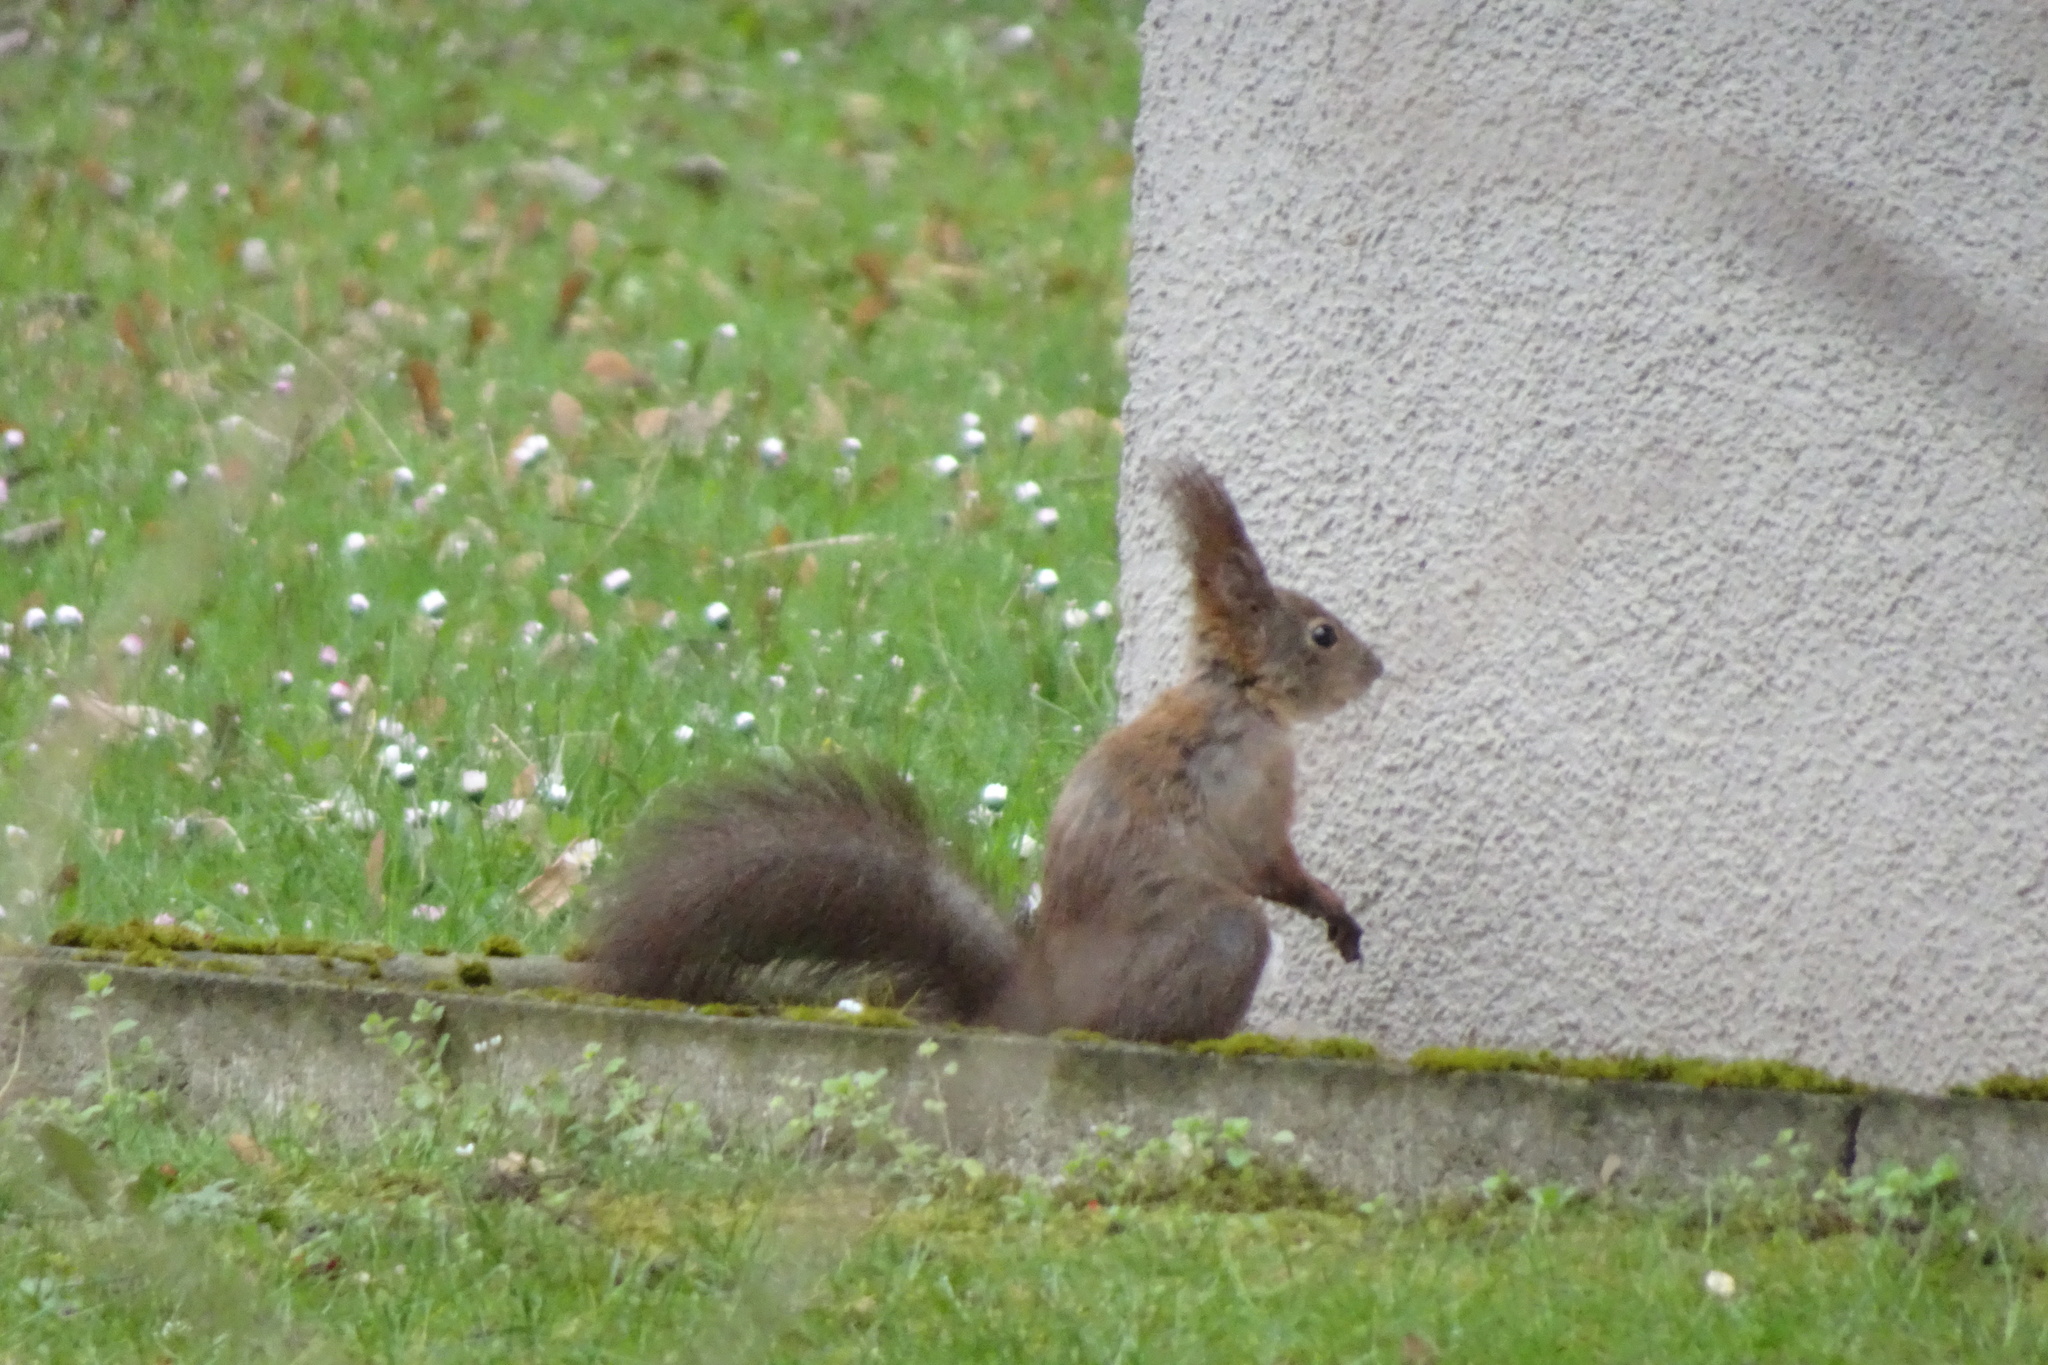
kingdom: Animalia
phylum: Chordata
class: Mammalia
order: Rodentia
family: Sciuridae
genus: Sciurus
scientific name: Sciurus vulgaris
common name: Eurasian red squirrel
